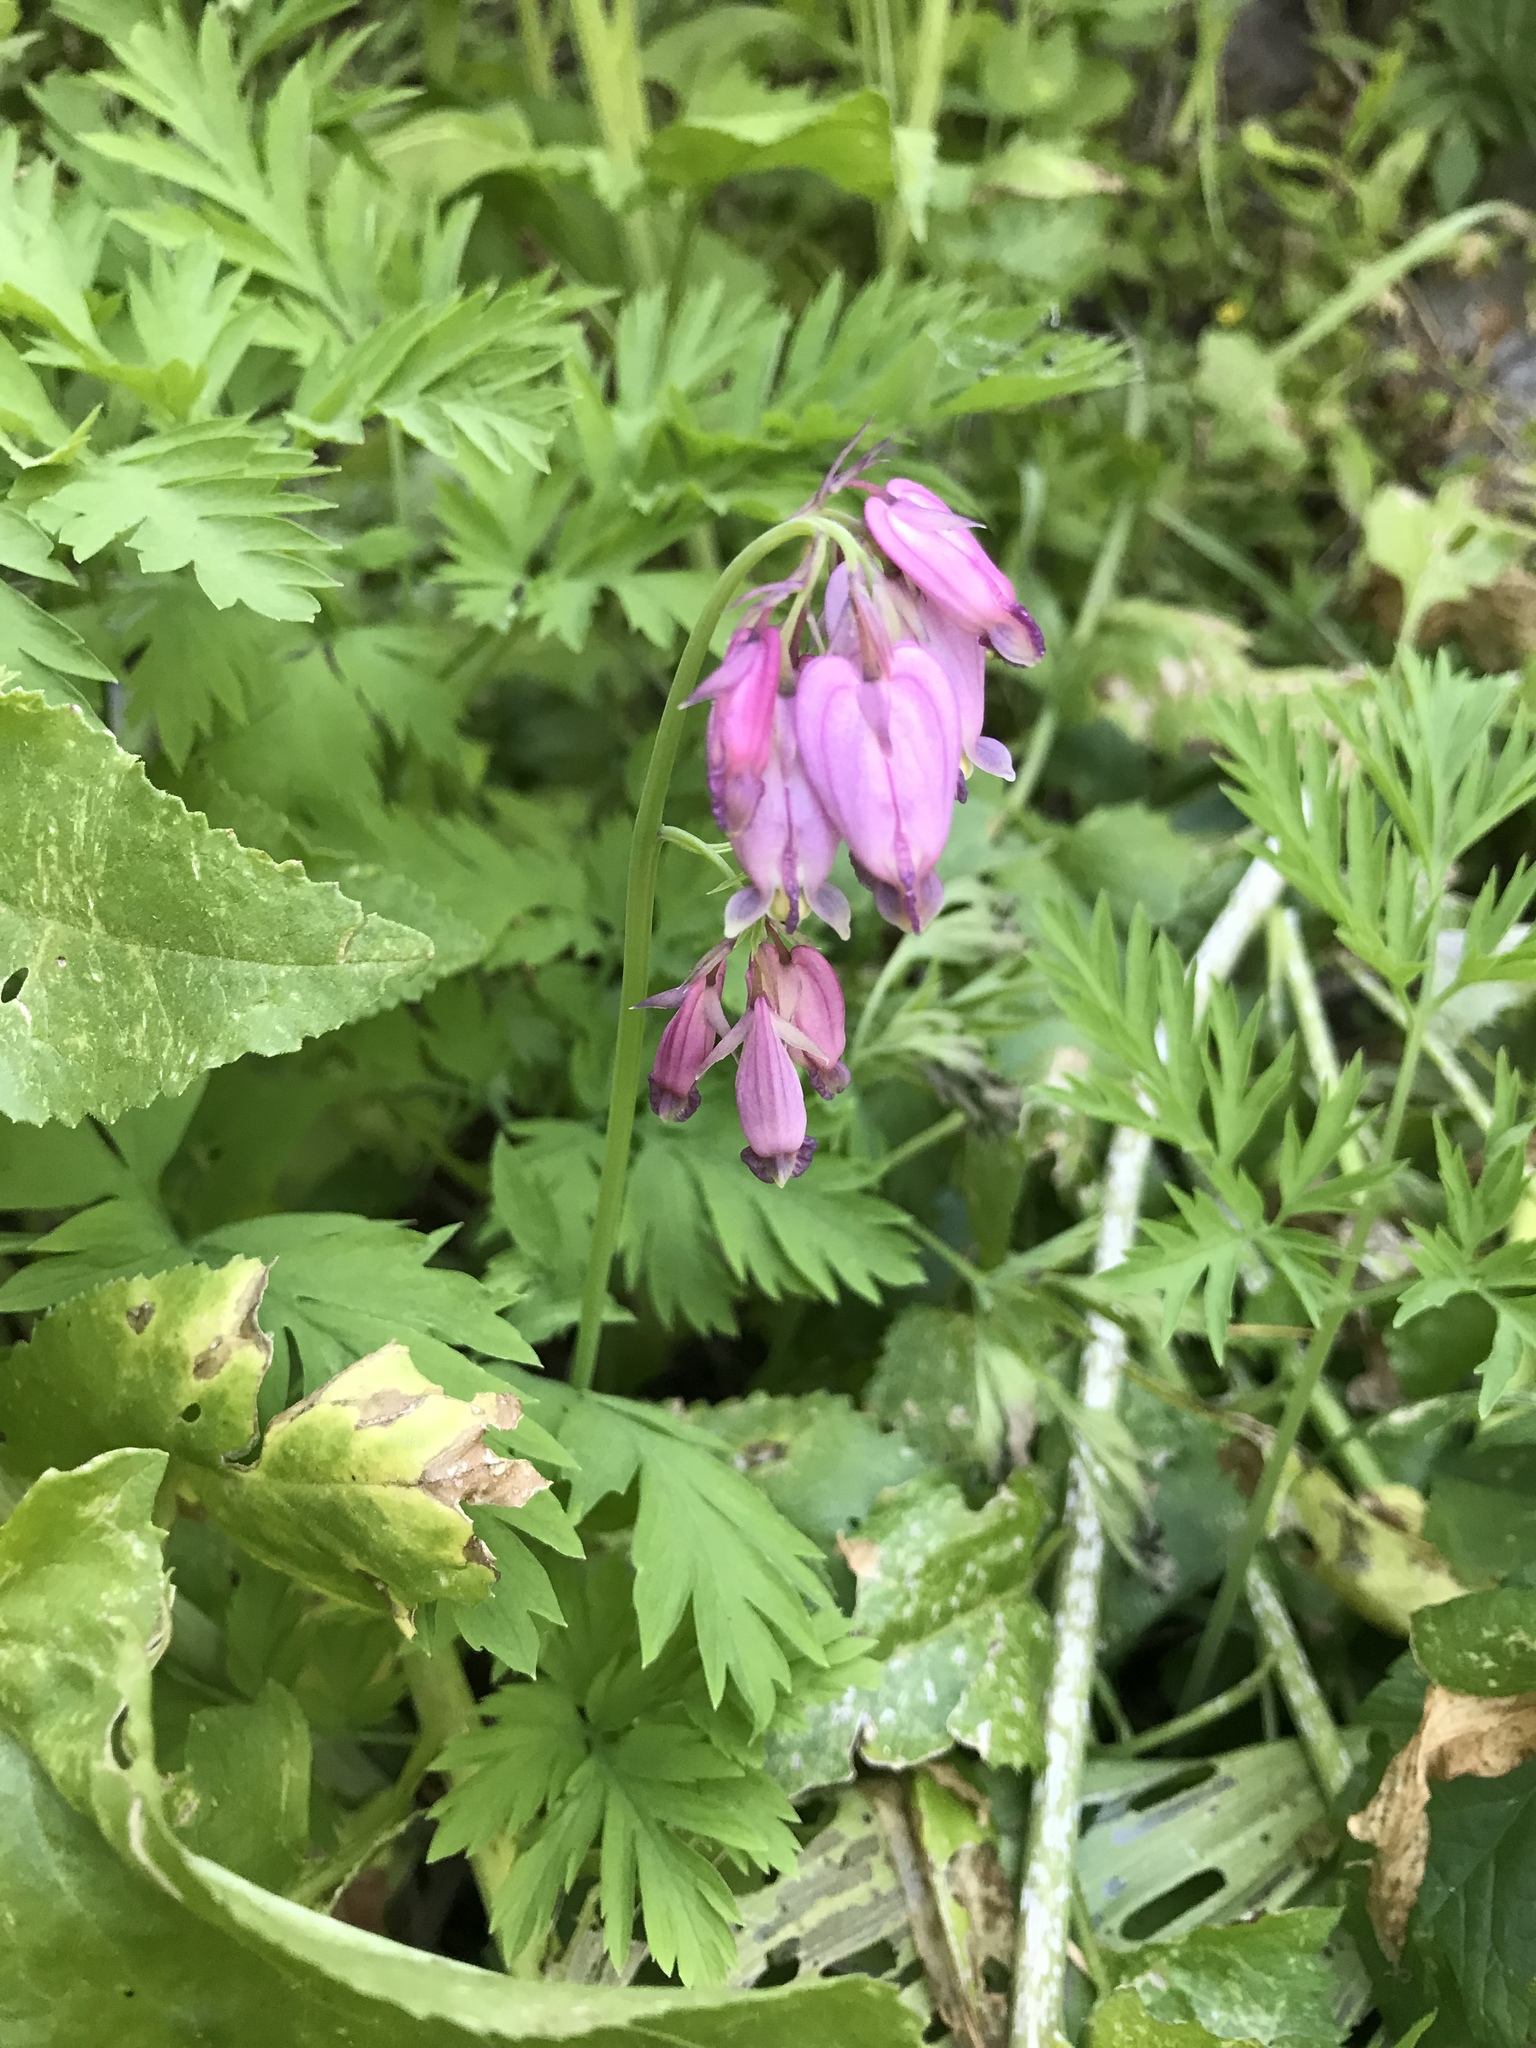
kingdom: Plantae
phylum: Tracheophyta
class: Magnoliopsida
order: Ranunculales
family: Papaveraceae
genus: Dicentra
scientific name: Dicentra formosa
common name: Bleeding-heart
